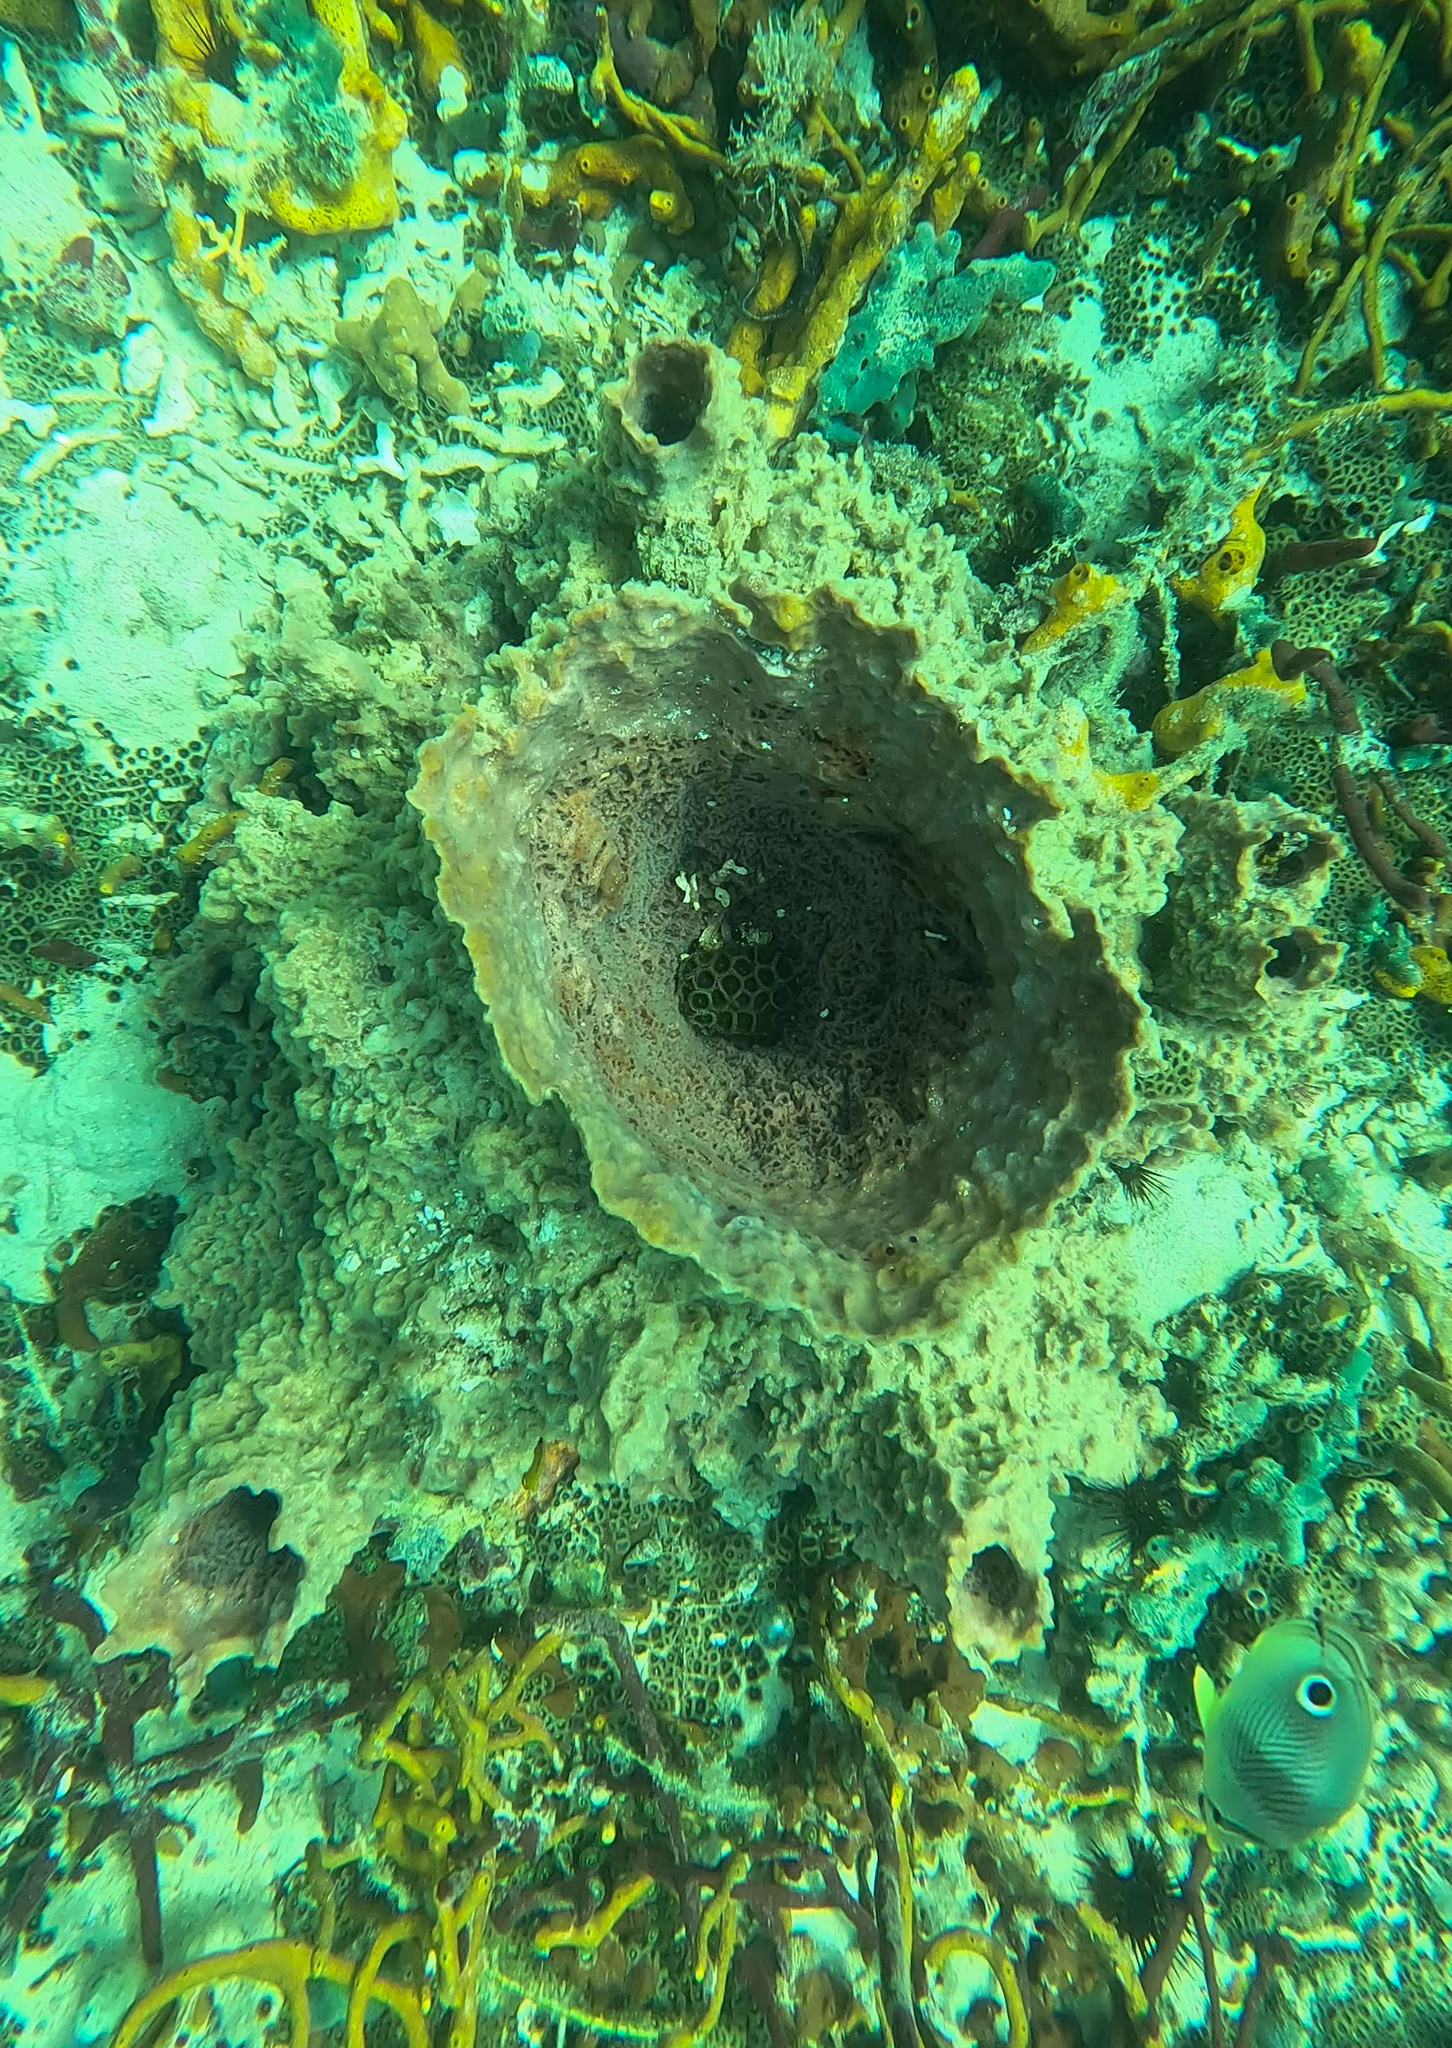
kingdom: Animalia
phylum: Porifera
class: Demospongiae
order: Haplosclerida
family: Petrosiidae
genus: Xestospongia
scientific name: Xestospongia muta
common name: Giant barrel sponge
